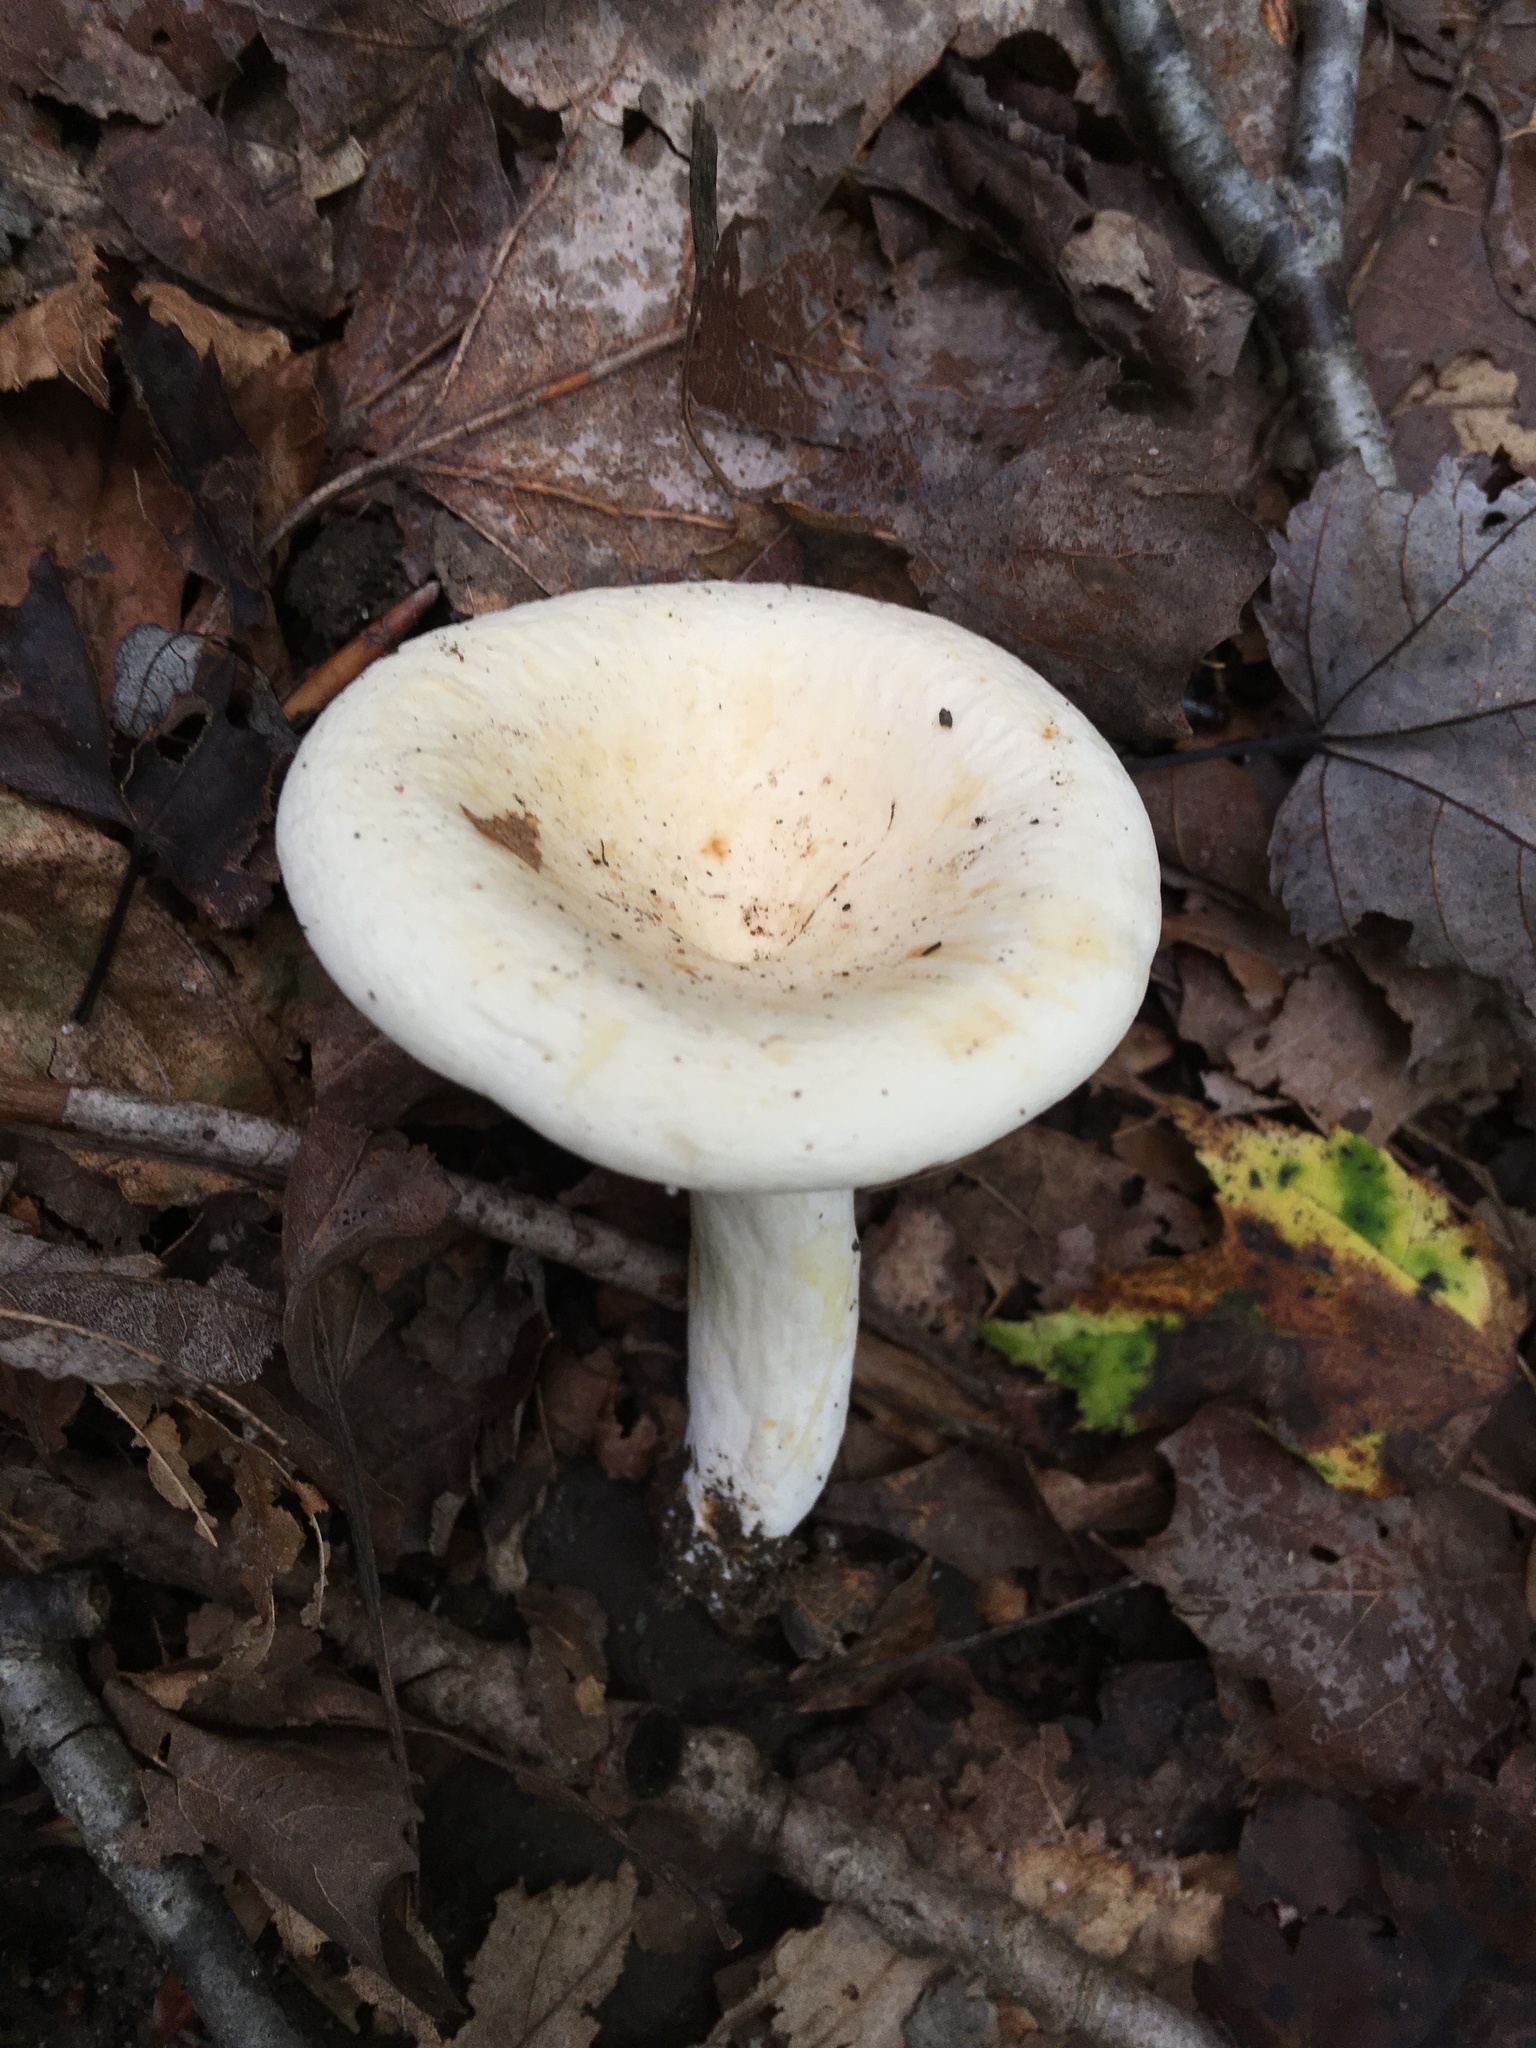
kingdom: Fungi
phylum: Basidiomycota
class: Agaricomycetes
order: Russulales
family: Russulaceae
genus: Lactifluus
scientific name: Lactifluus piperatus
